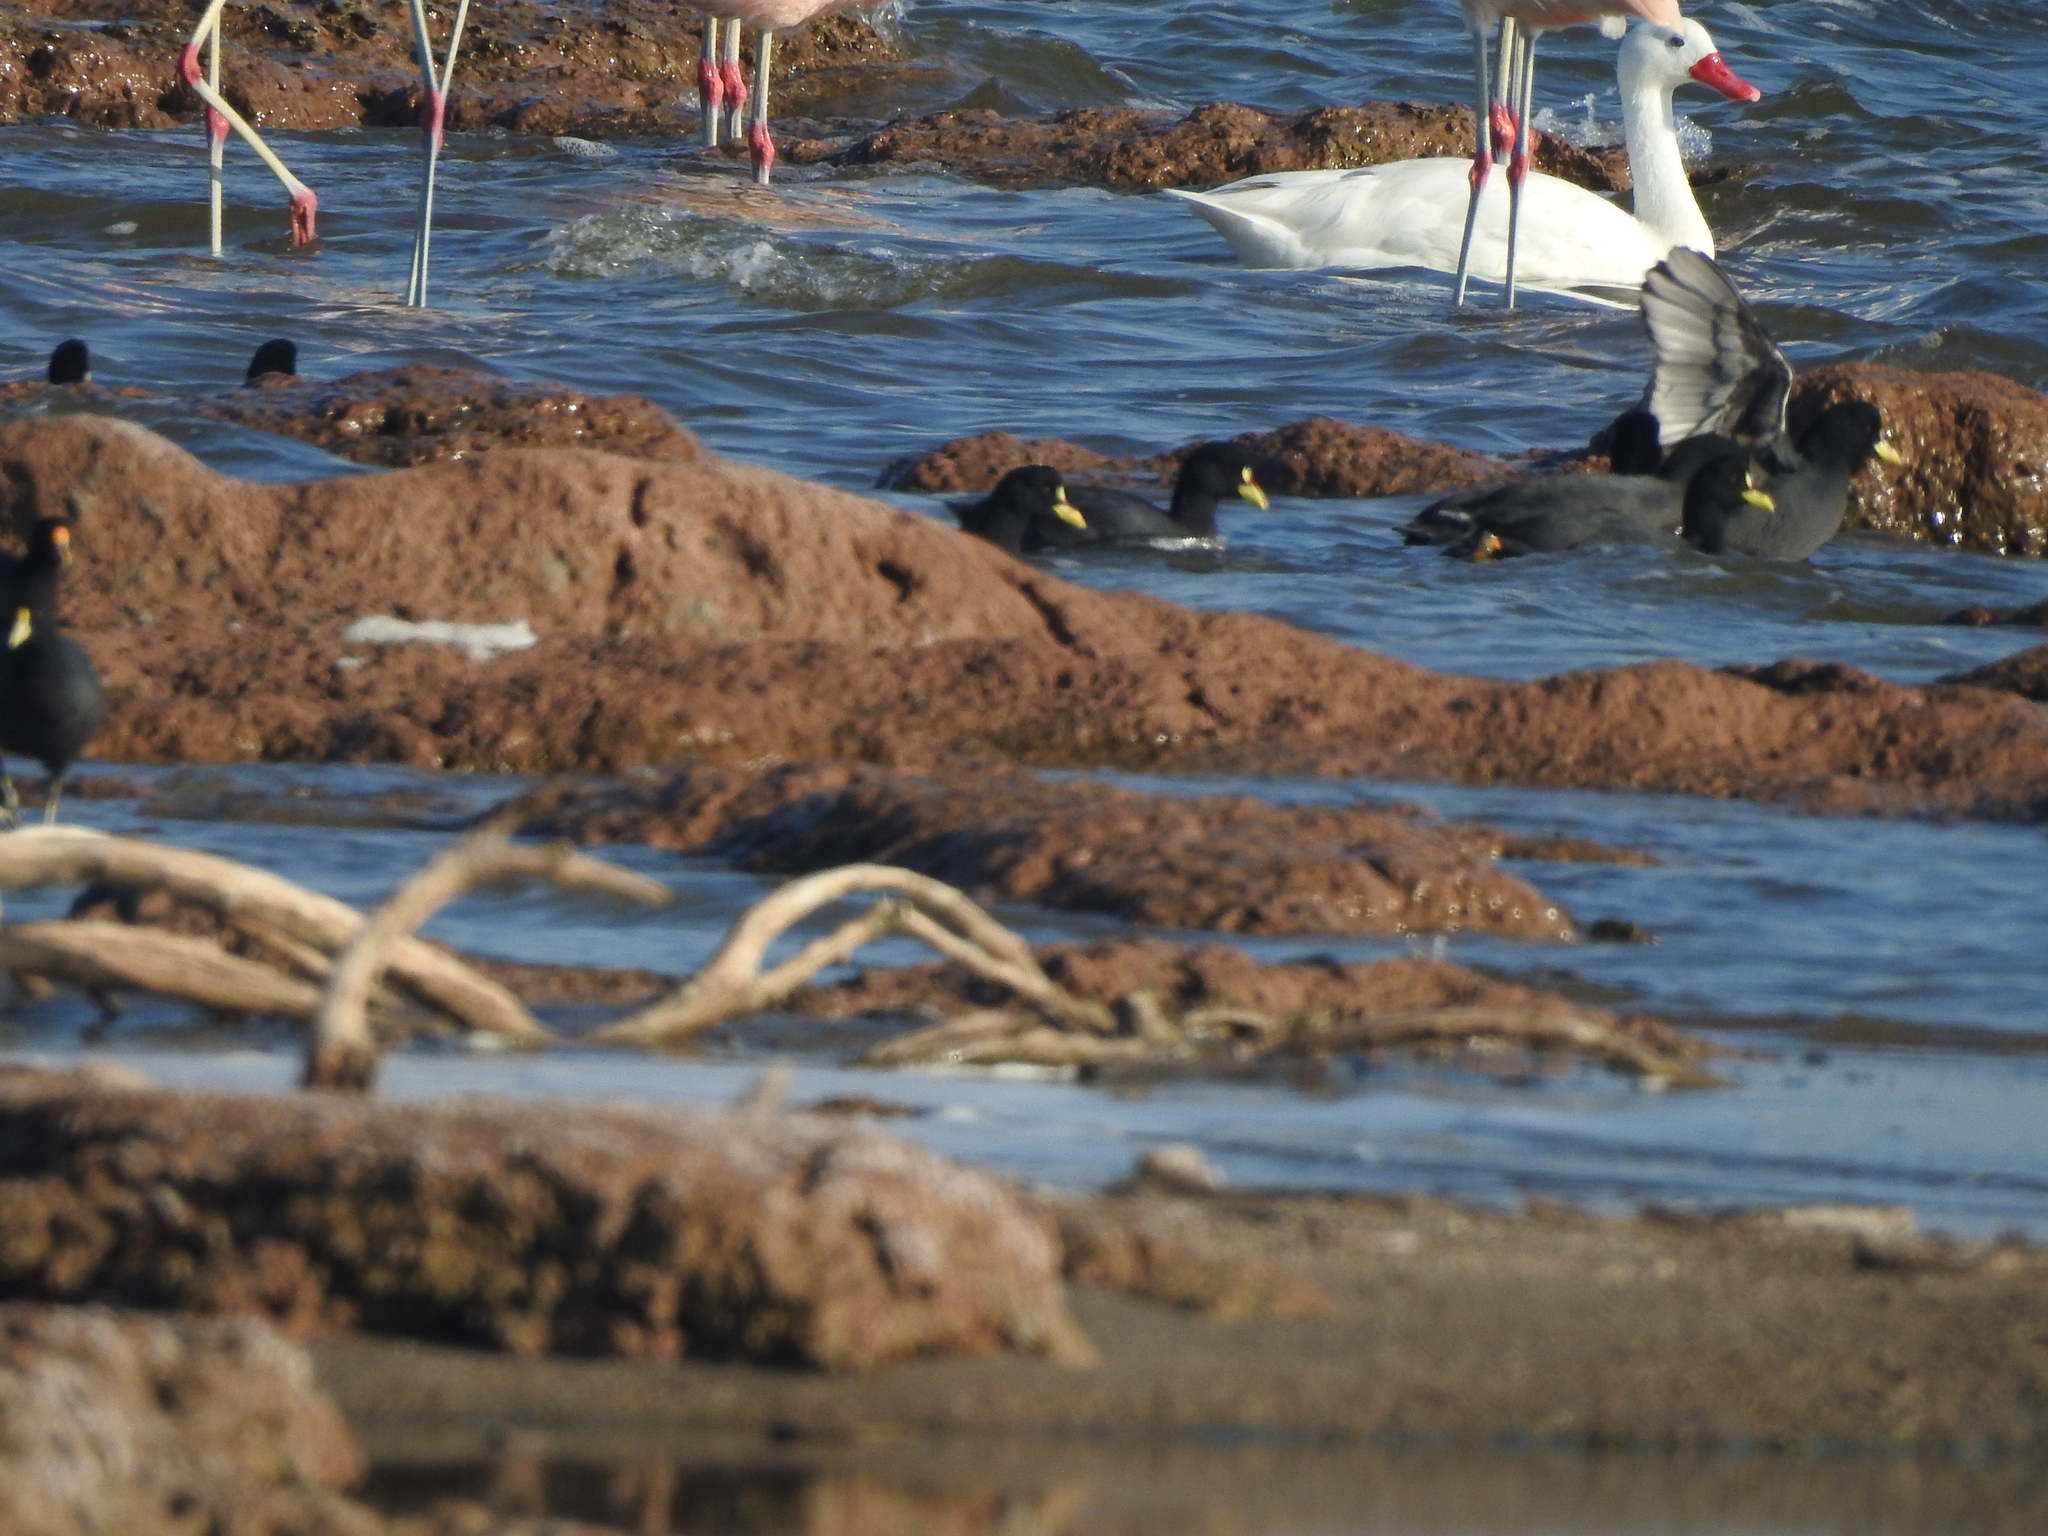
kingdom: Animalia
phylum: Chordata
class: Aves
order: Gruiformes
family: Rallidae
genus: Fulica
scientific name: Fulica armillata
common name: Red-gartered coot
